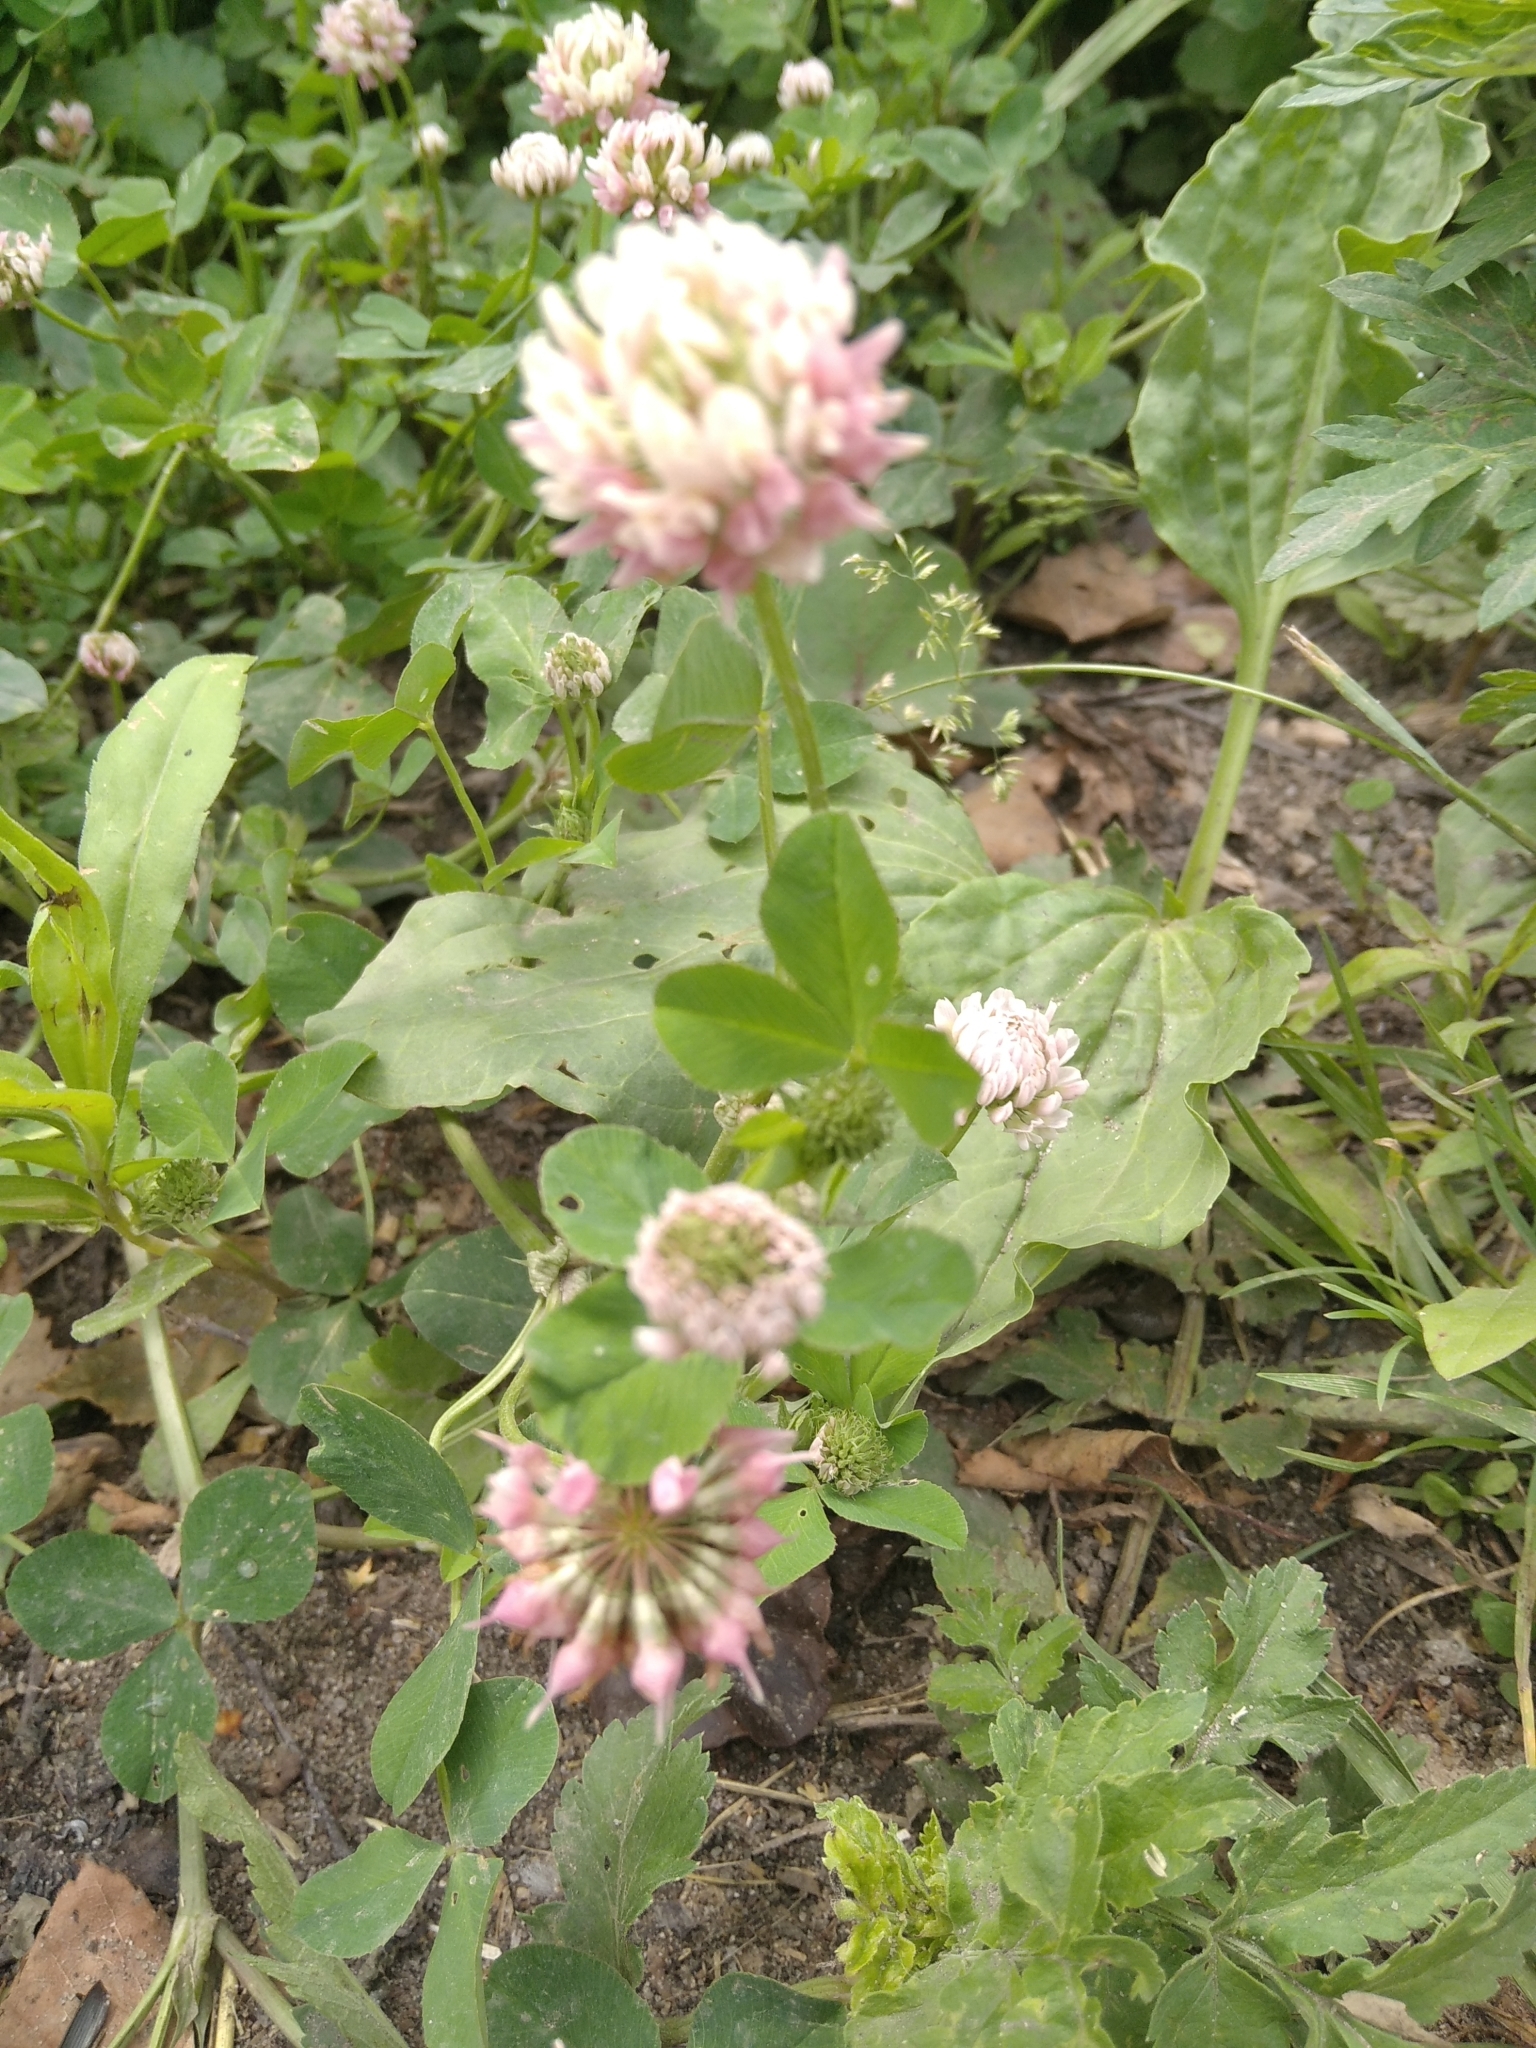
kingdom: Plantae
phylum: Tracheophyta
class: Magnoliopsida
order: Fabales
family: Fabaceae
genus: Trifolium
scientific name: Trifolium hybridum
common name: Alsike clover
